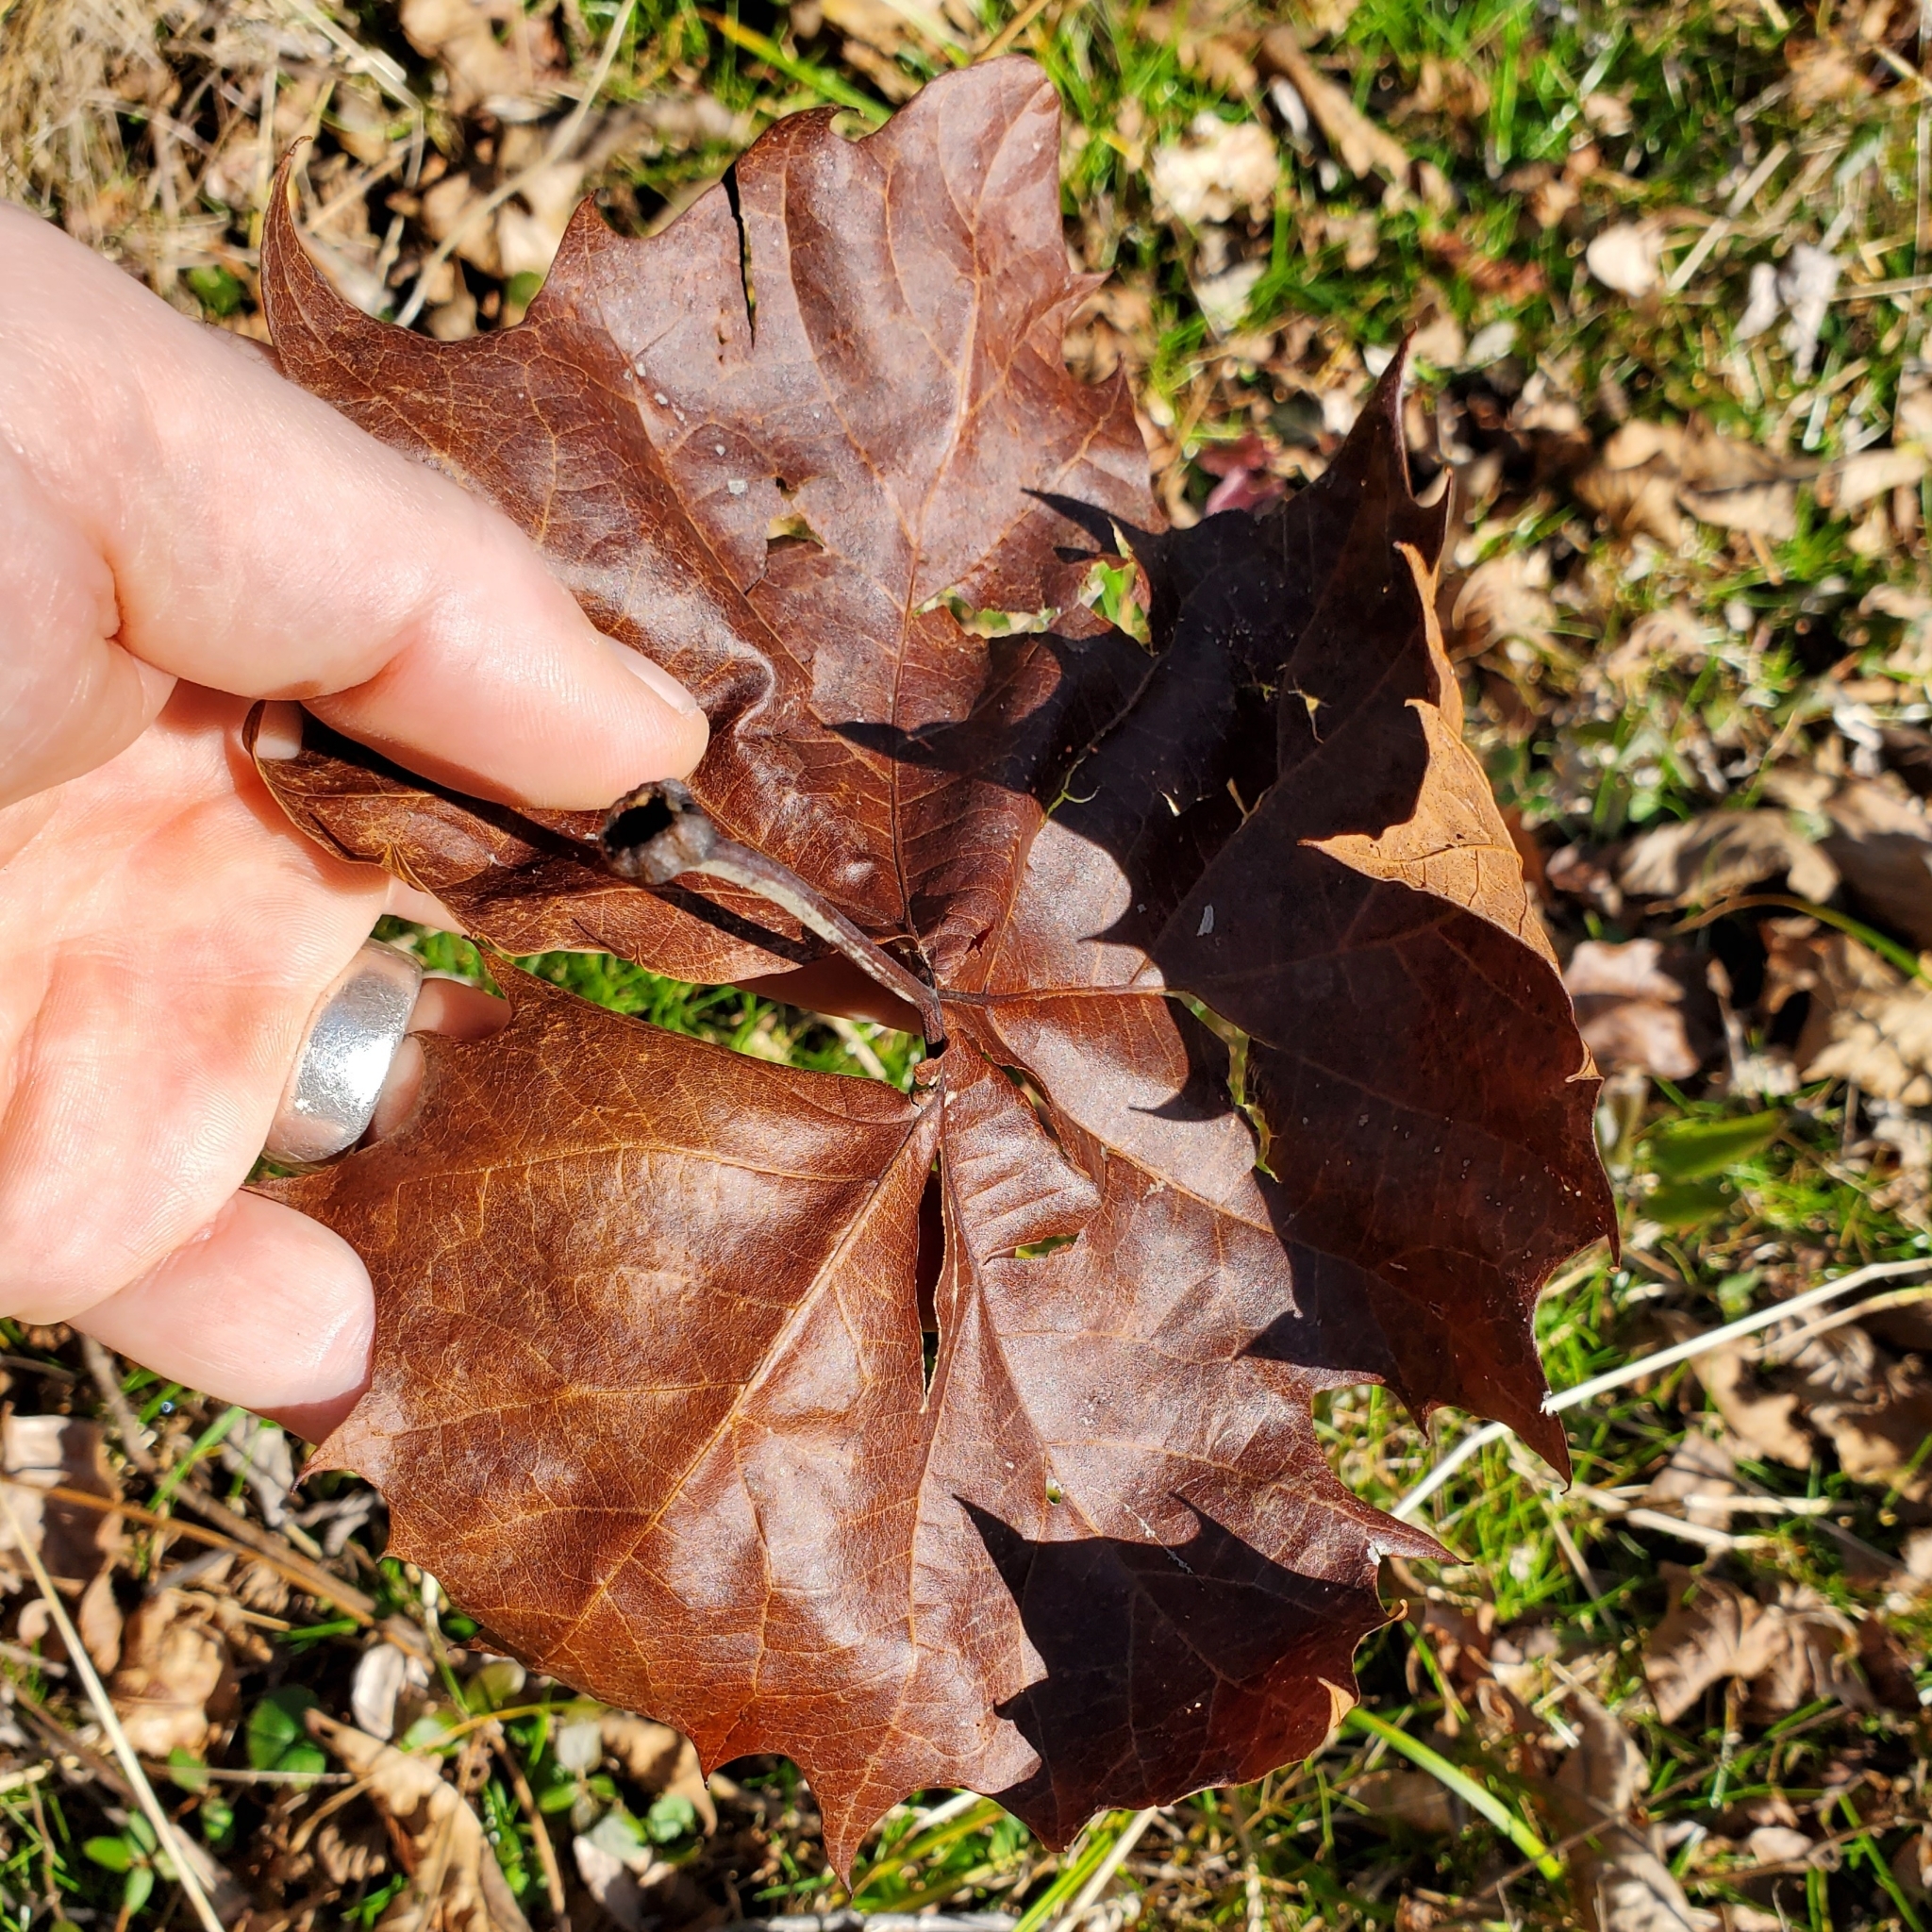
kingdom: Plantae
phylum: Tracheophyta
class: Magnoliopsida
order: Proteales
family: Platanaceae
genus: Platanus
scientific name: Platanus occidentalis
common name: American sycamore
